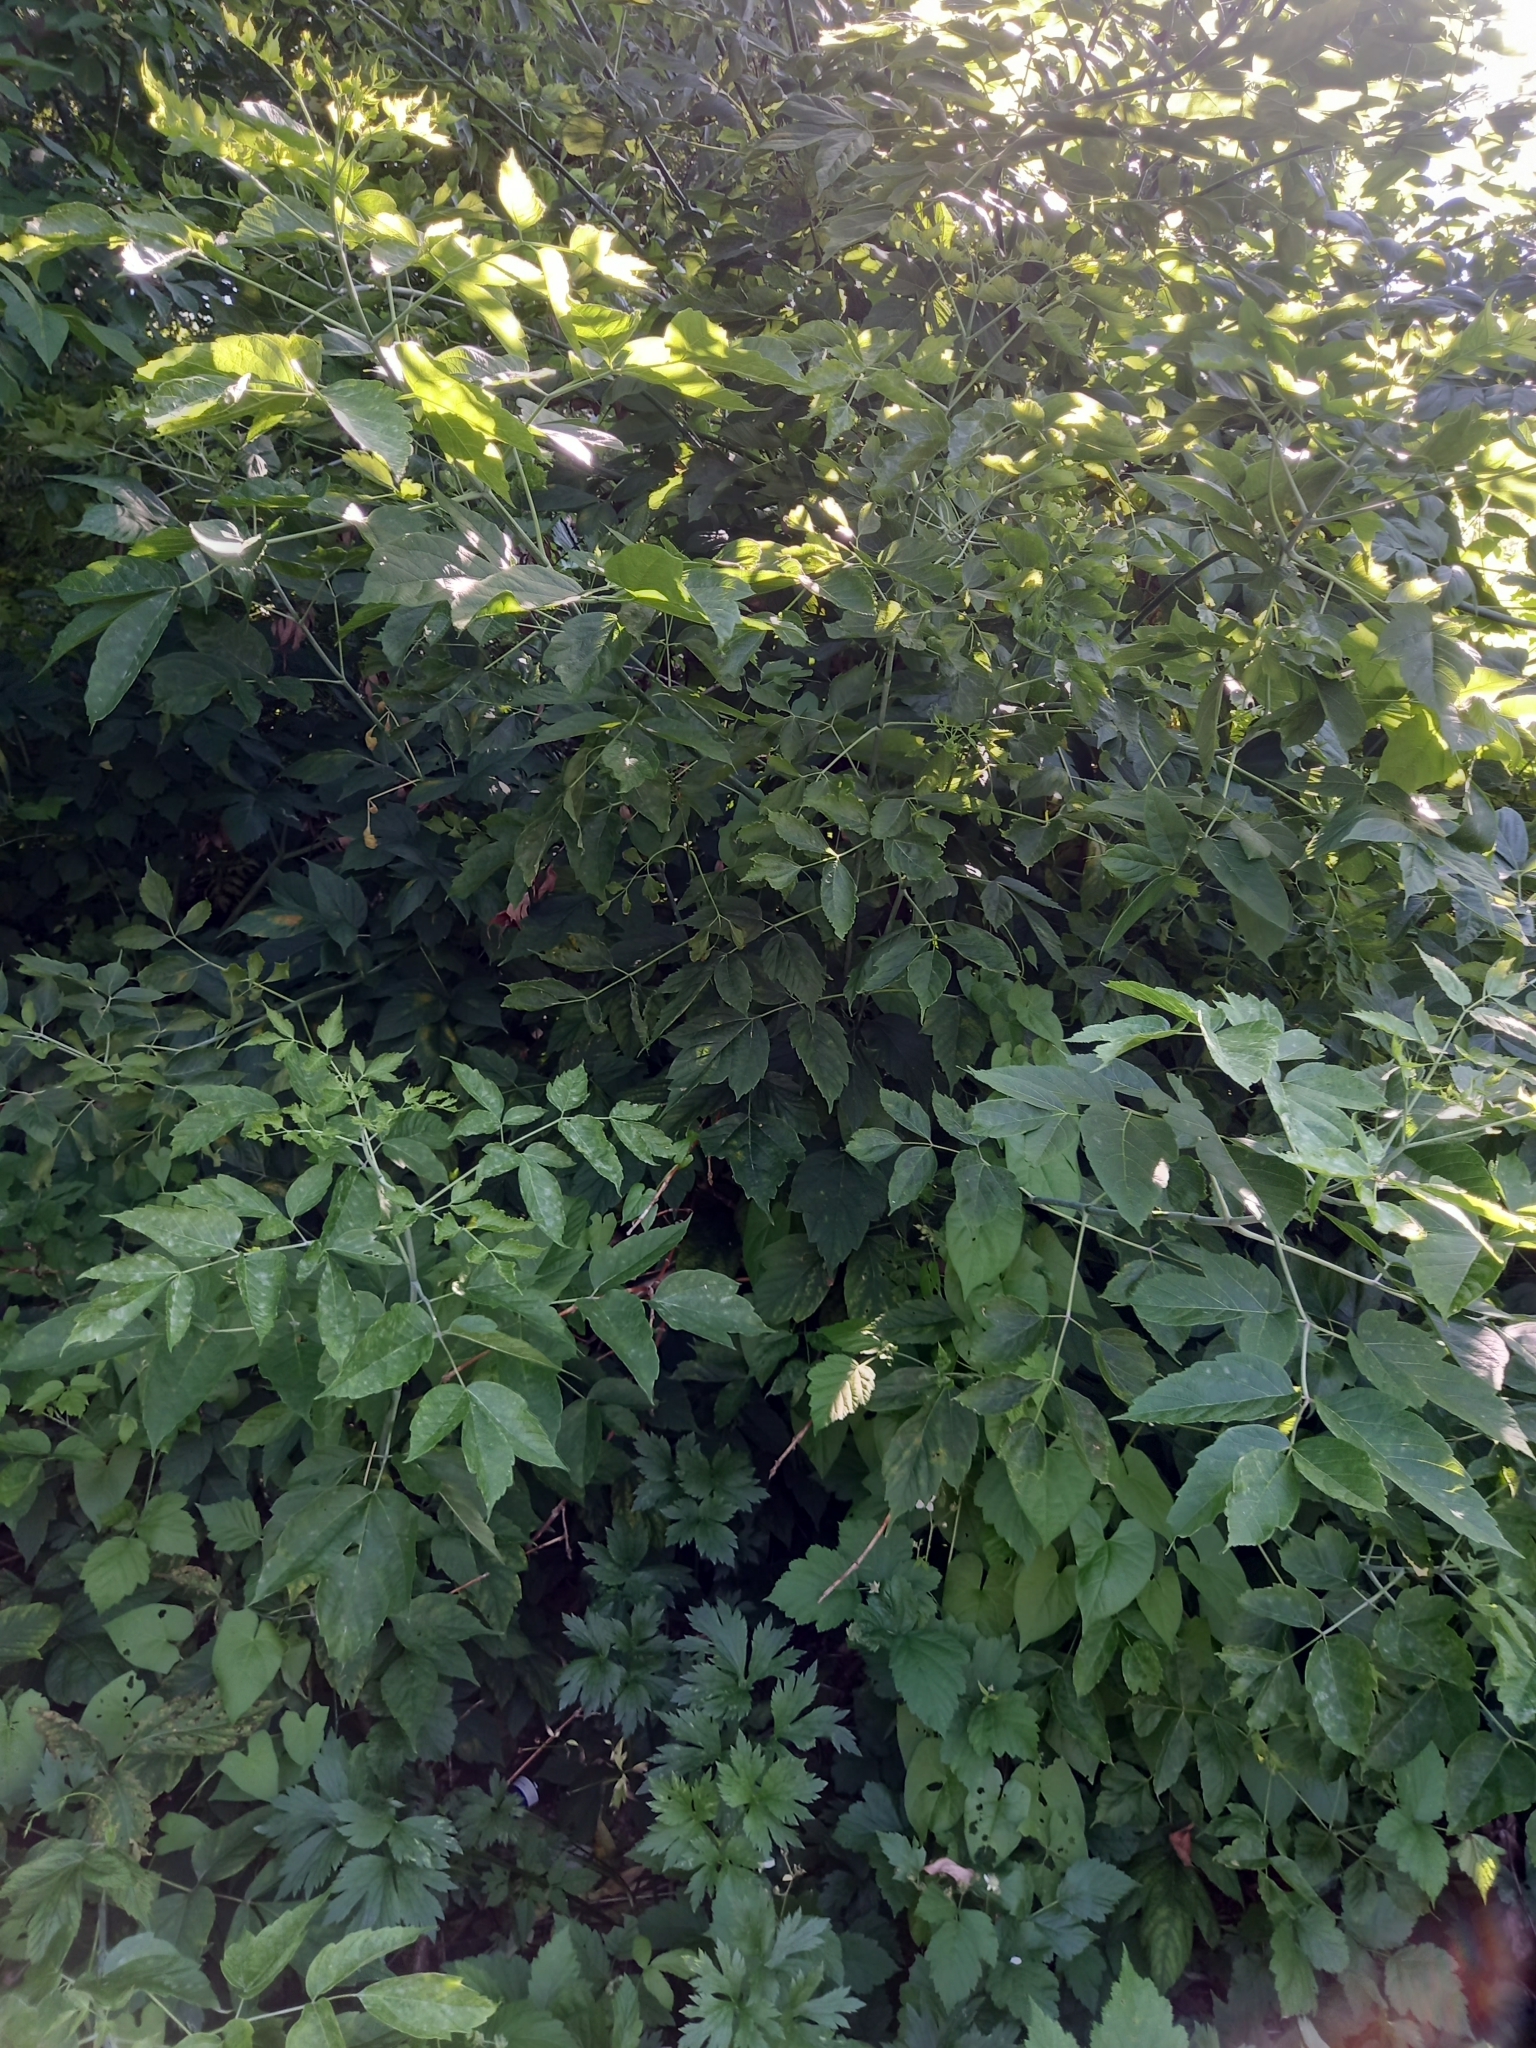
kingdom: Plantae
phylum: Tracheophyta
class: Magnoliopsida
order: Sapindales
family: Sapindaceae
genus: Acer
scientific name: Acer negundo
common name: Ashleaf maple
